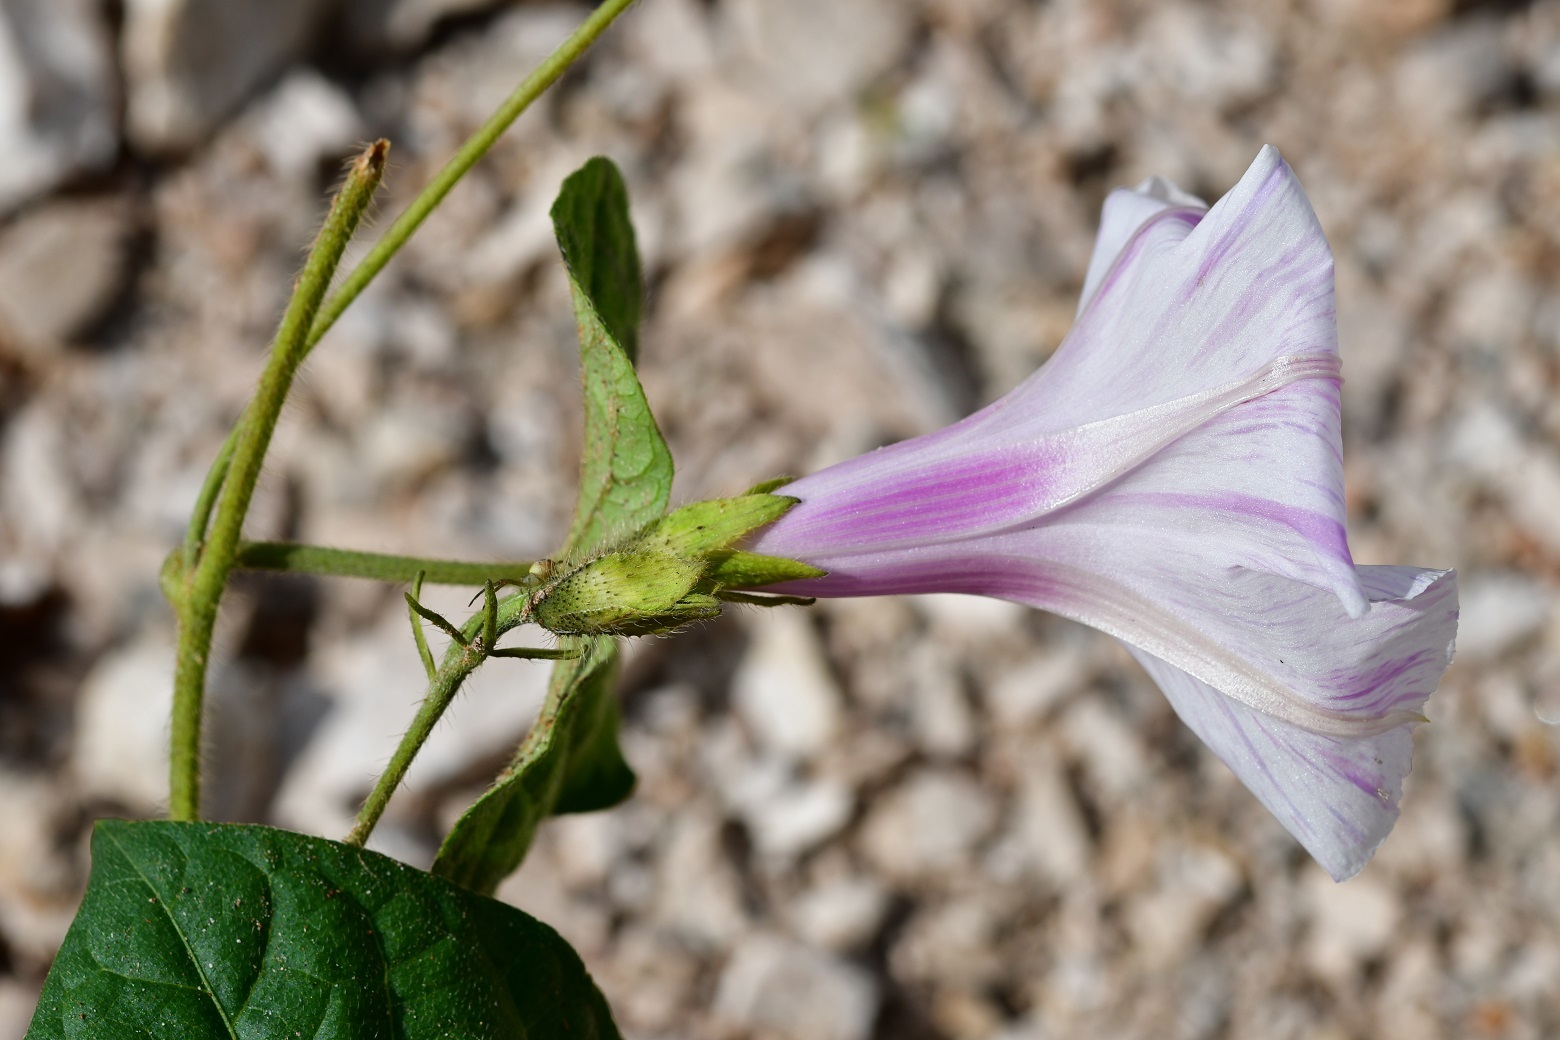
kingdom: Plantae
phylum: Tracheophyta
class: Magnoliopsida
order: Solanales
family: Convolvulaceae
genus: Ipomoea
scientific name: Ipomoea purpurea
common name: Common morning-glory
